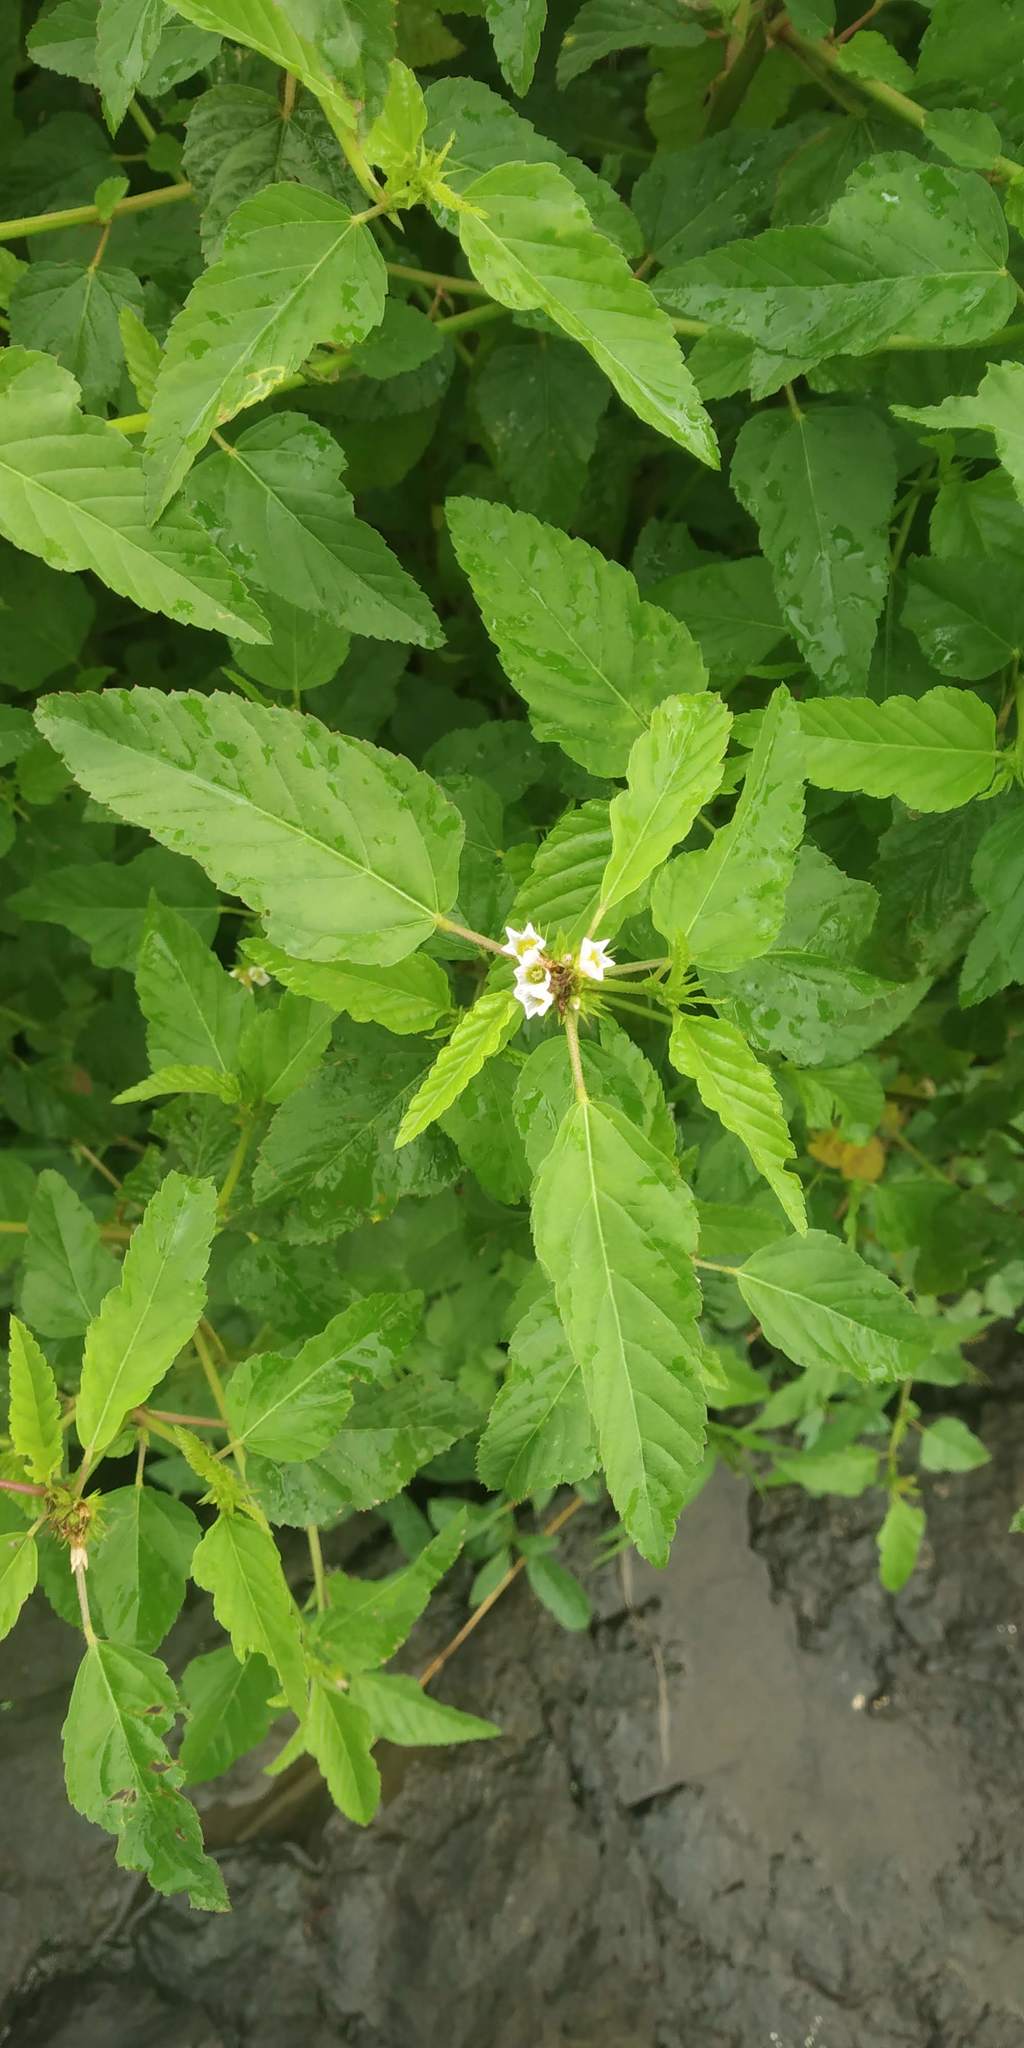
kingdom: Plantae
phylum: Tracheophyta
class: Magnoliopsida
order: Malvales
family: Malvaceae
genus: Melochia
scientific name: Melochia corchorifolia
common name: Chocolateweed
